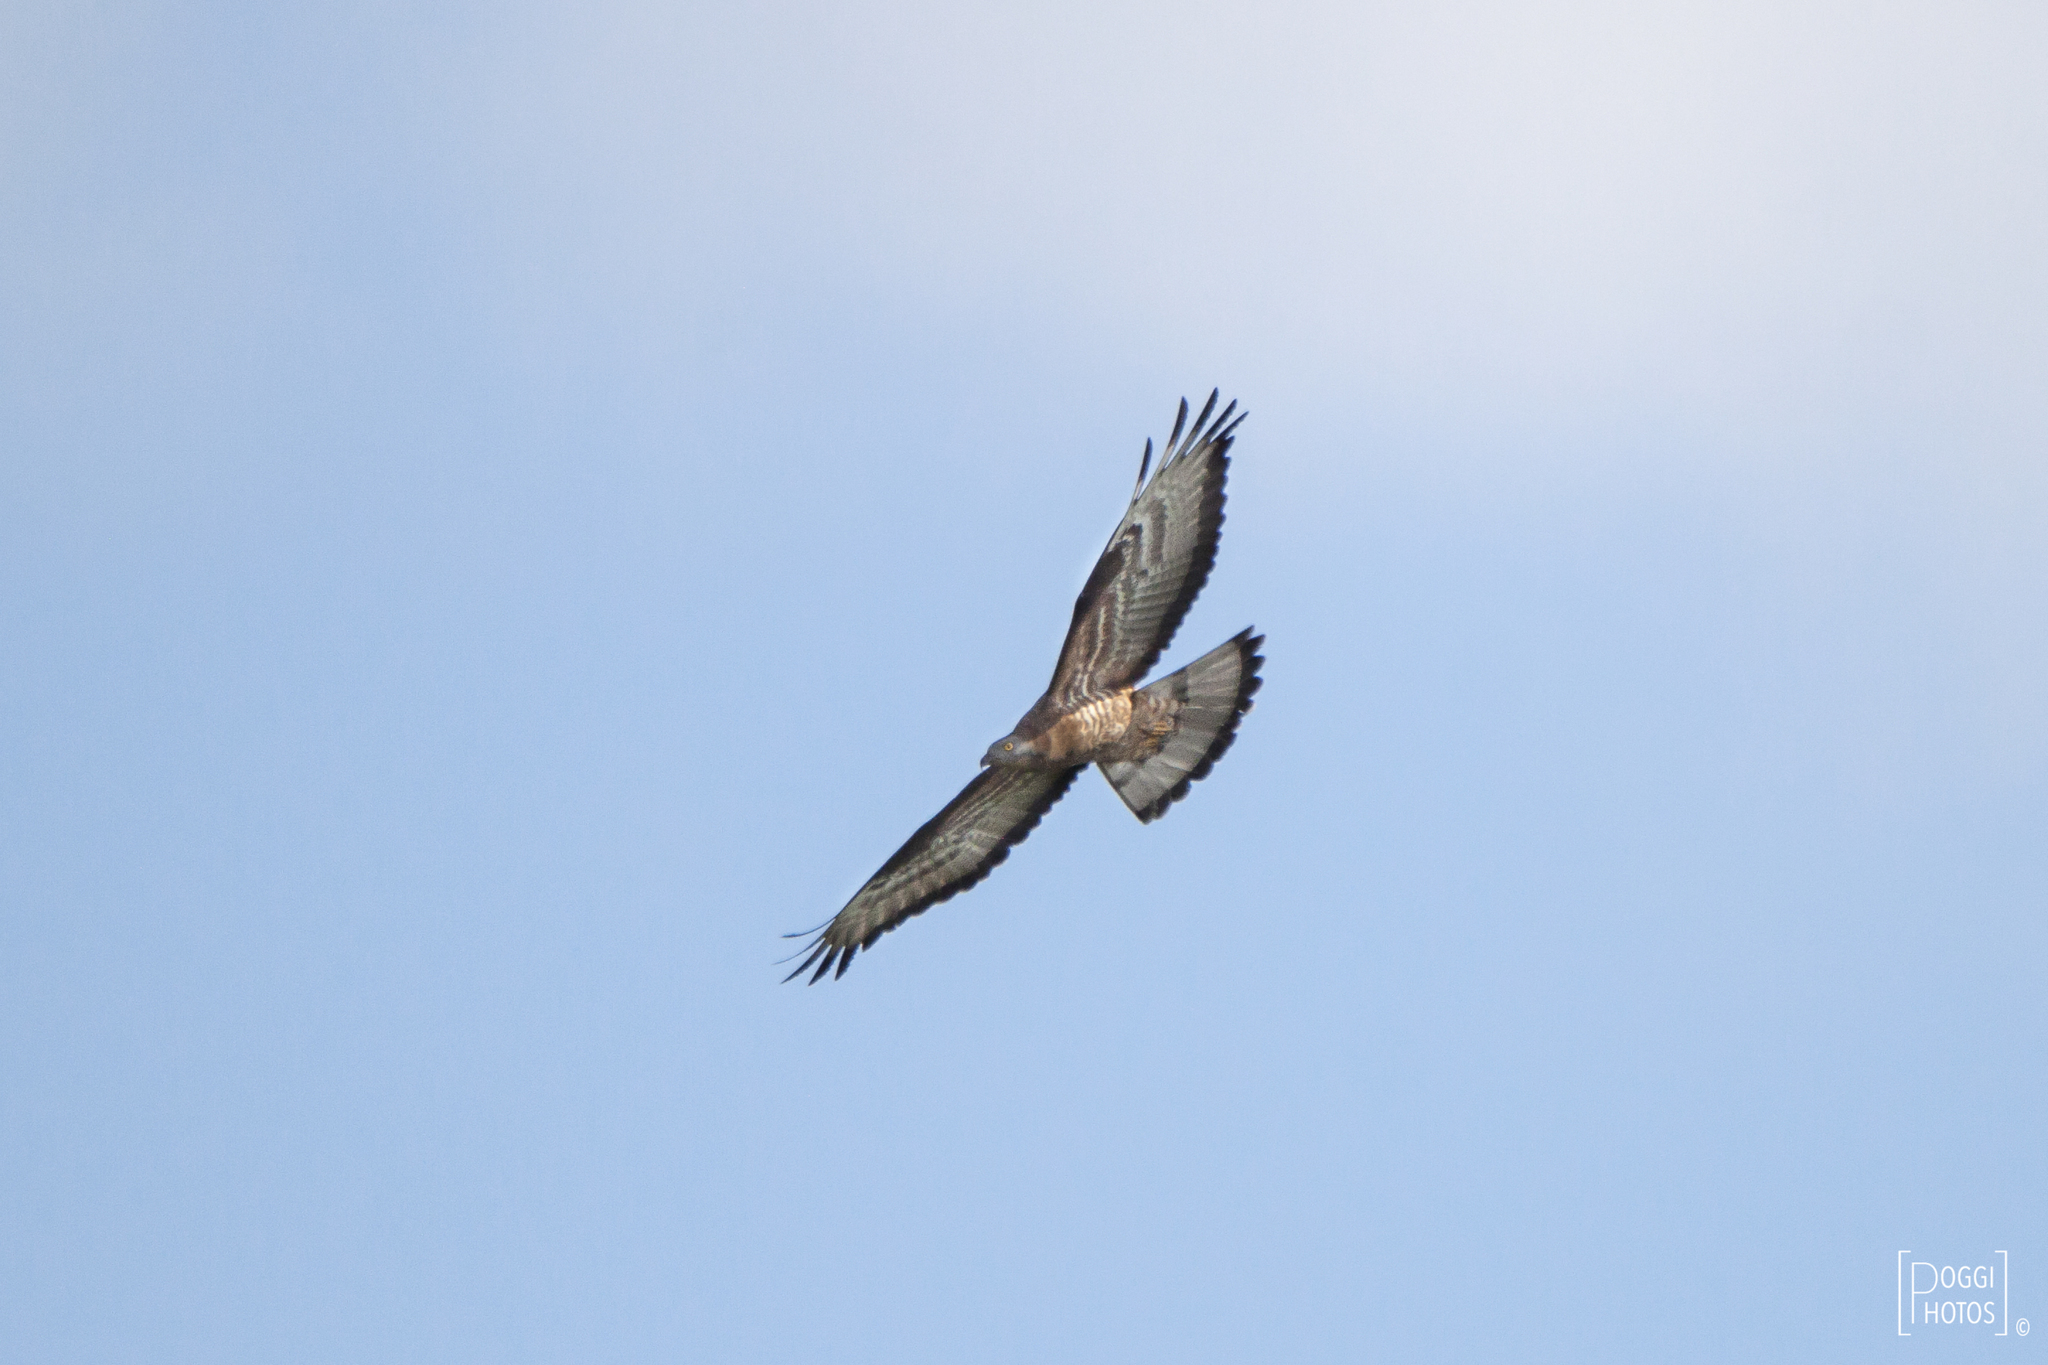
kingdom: Animalia
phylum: Chordata
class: Aves
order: Accipitriformes
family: Accipitridae
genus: Pernis
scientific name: Pernis apivorus
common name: European honey buzzard
